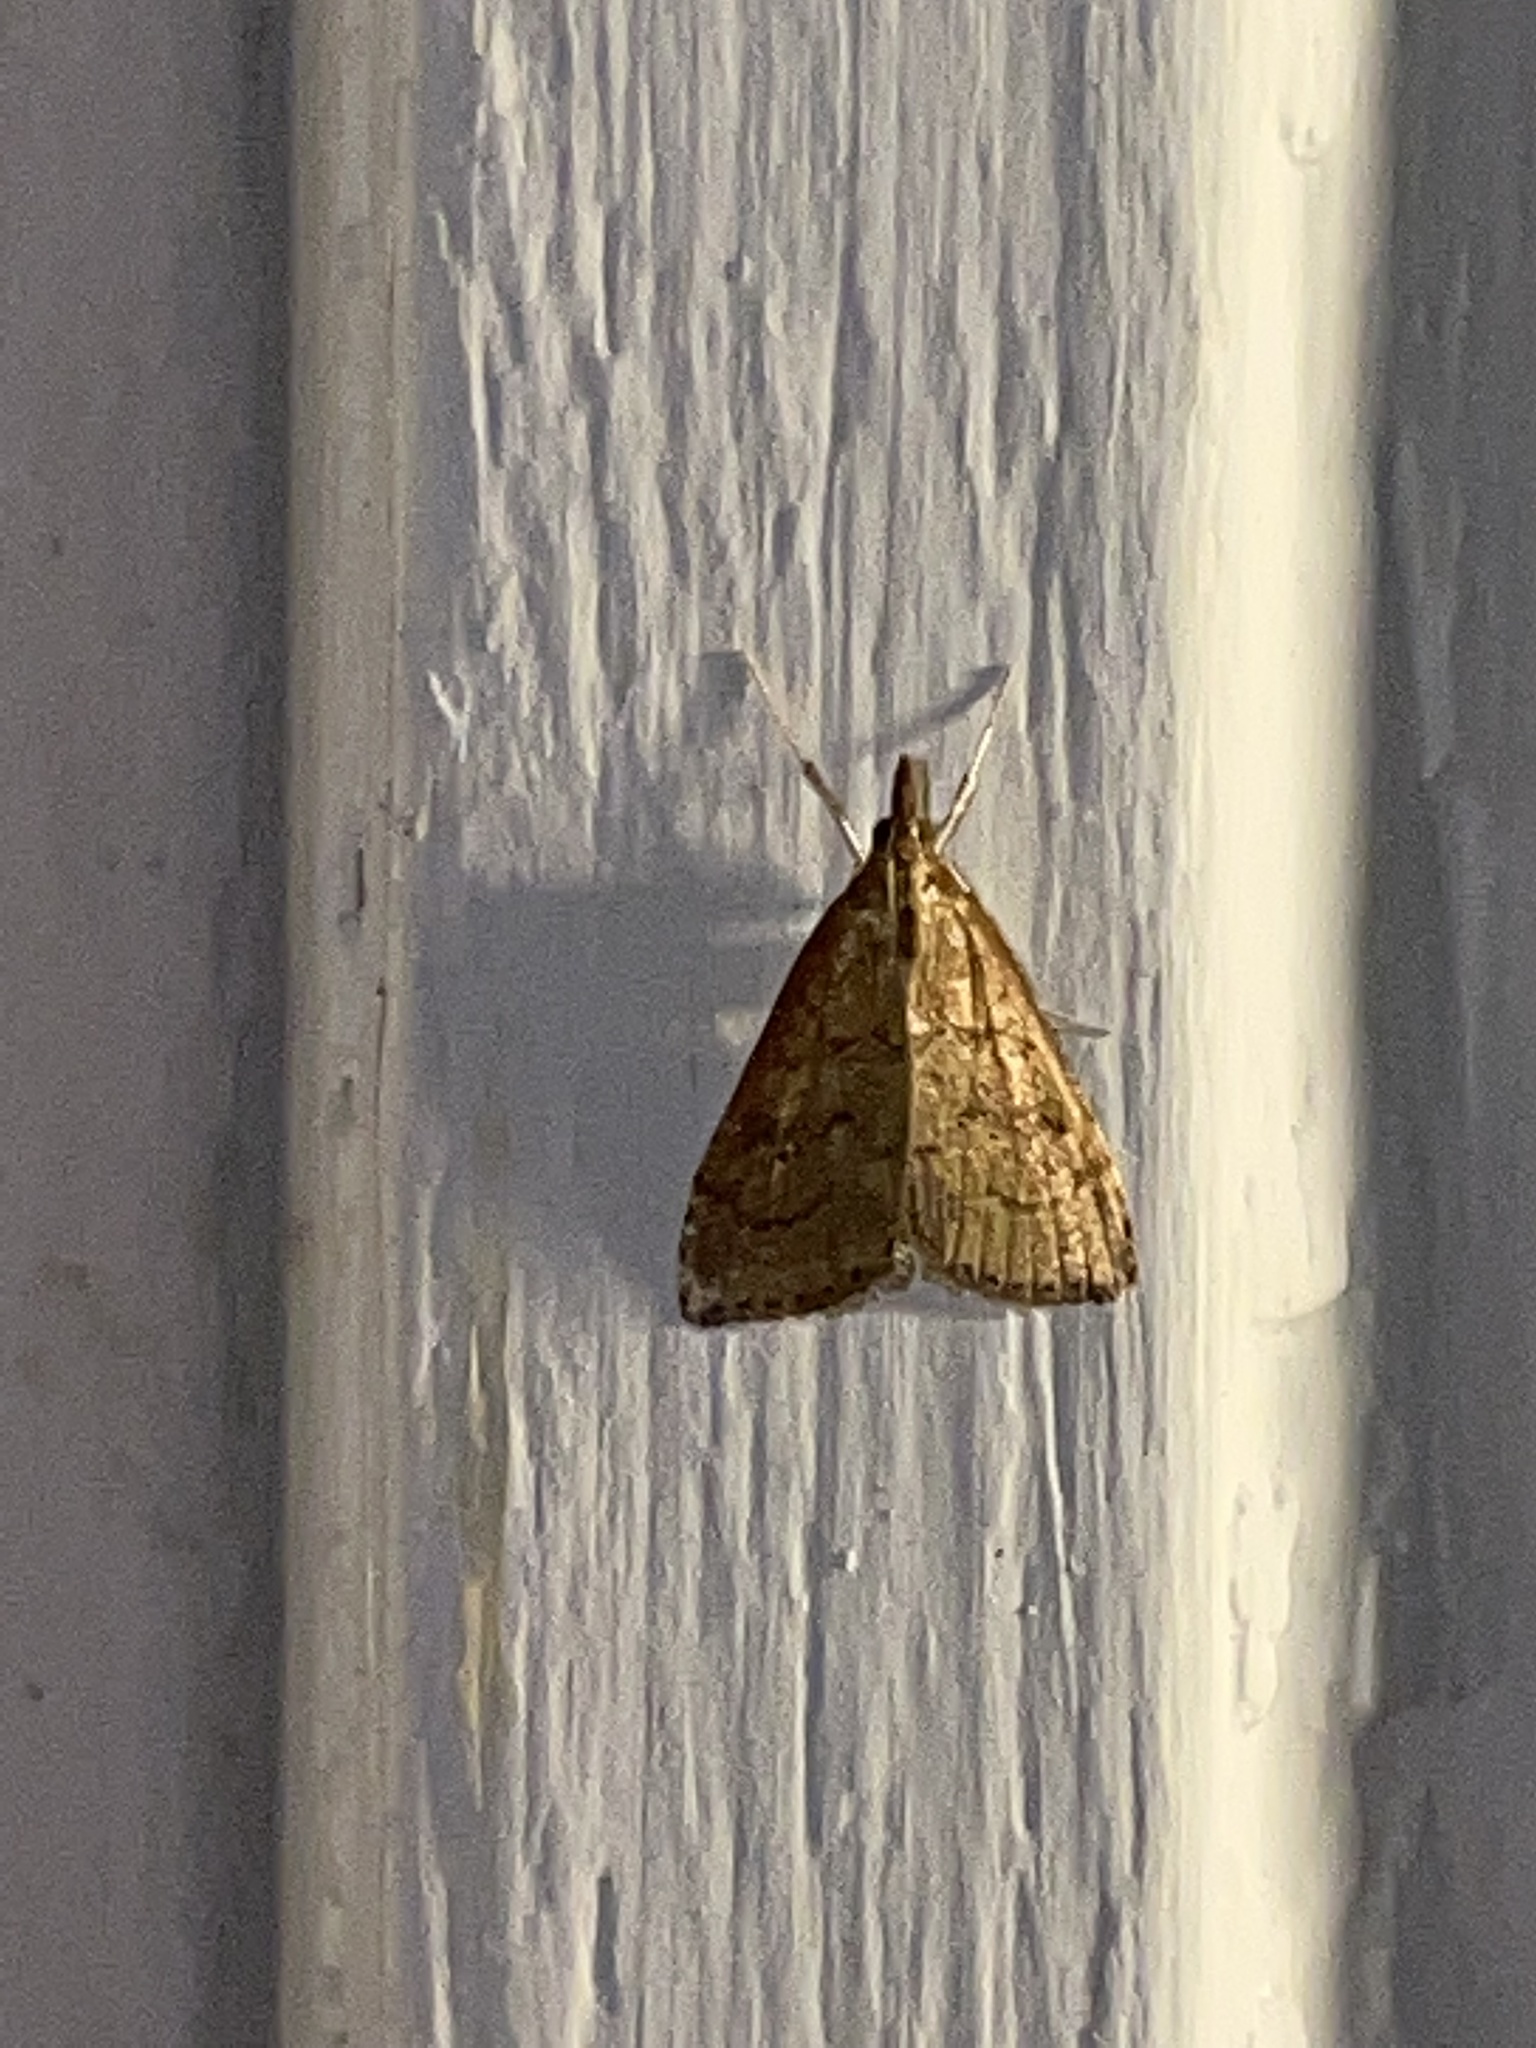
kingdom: Animalia
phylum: Arthropoda
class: Insecta
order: Lepidoptera
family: Crambidae
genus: Udea
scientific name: Udea rubigalis
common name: Celery leaftier moth
